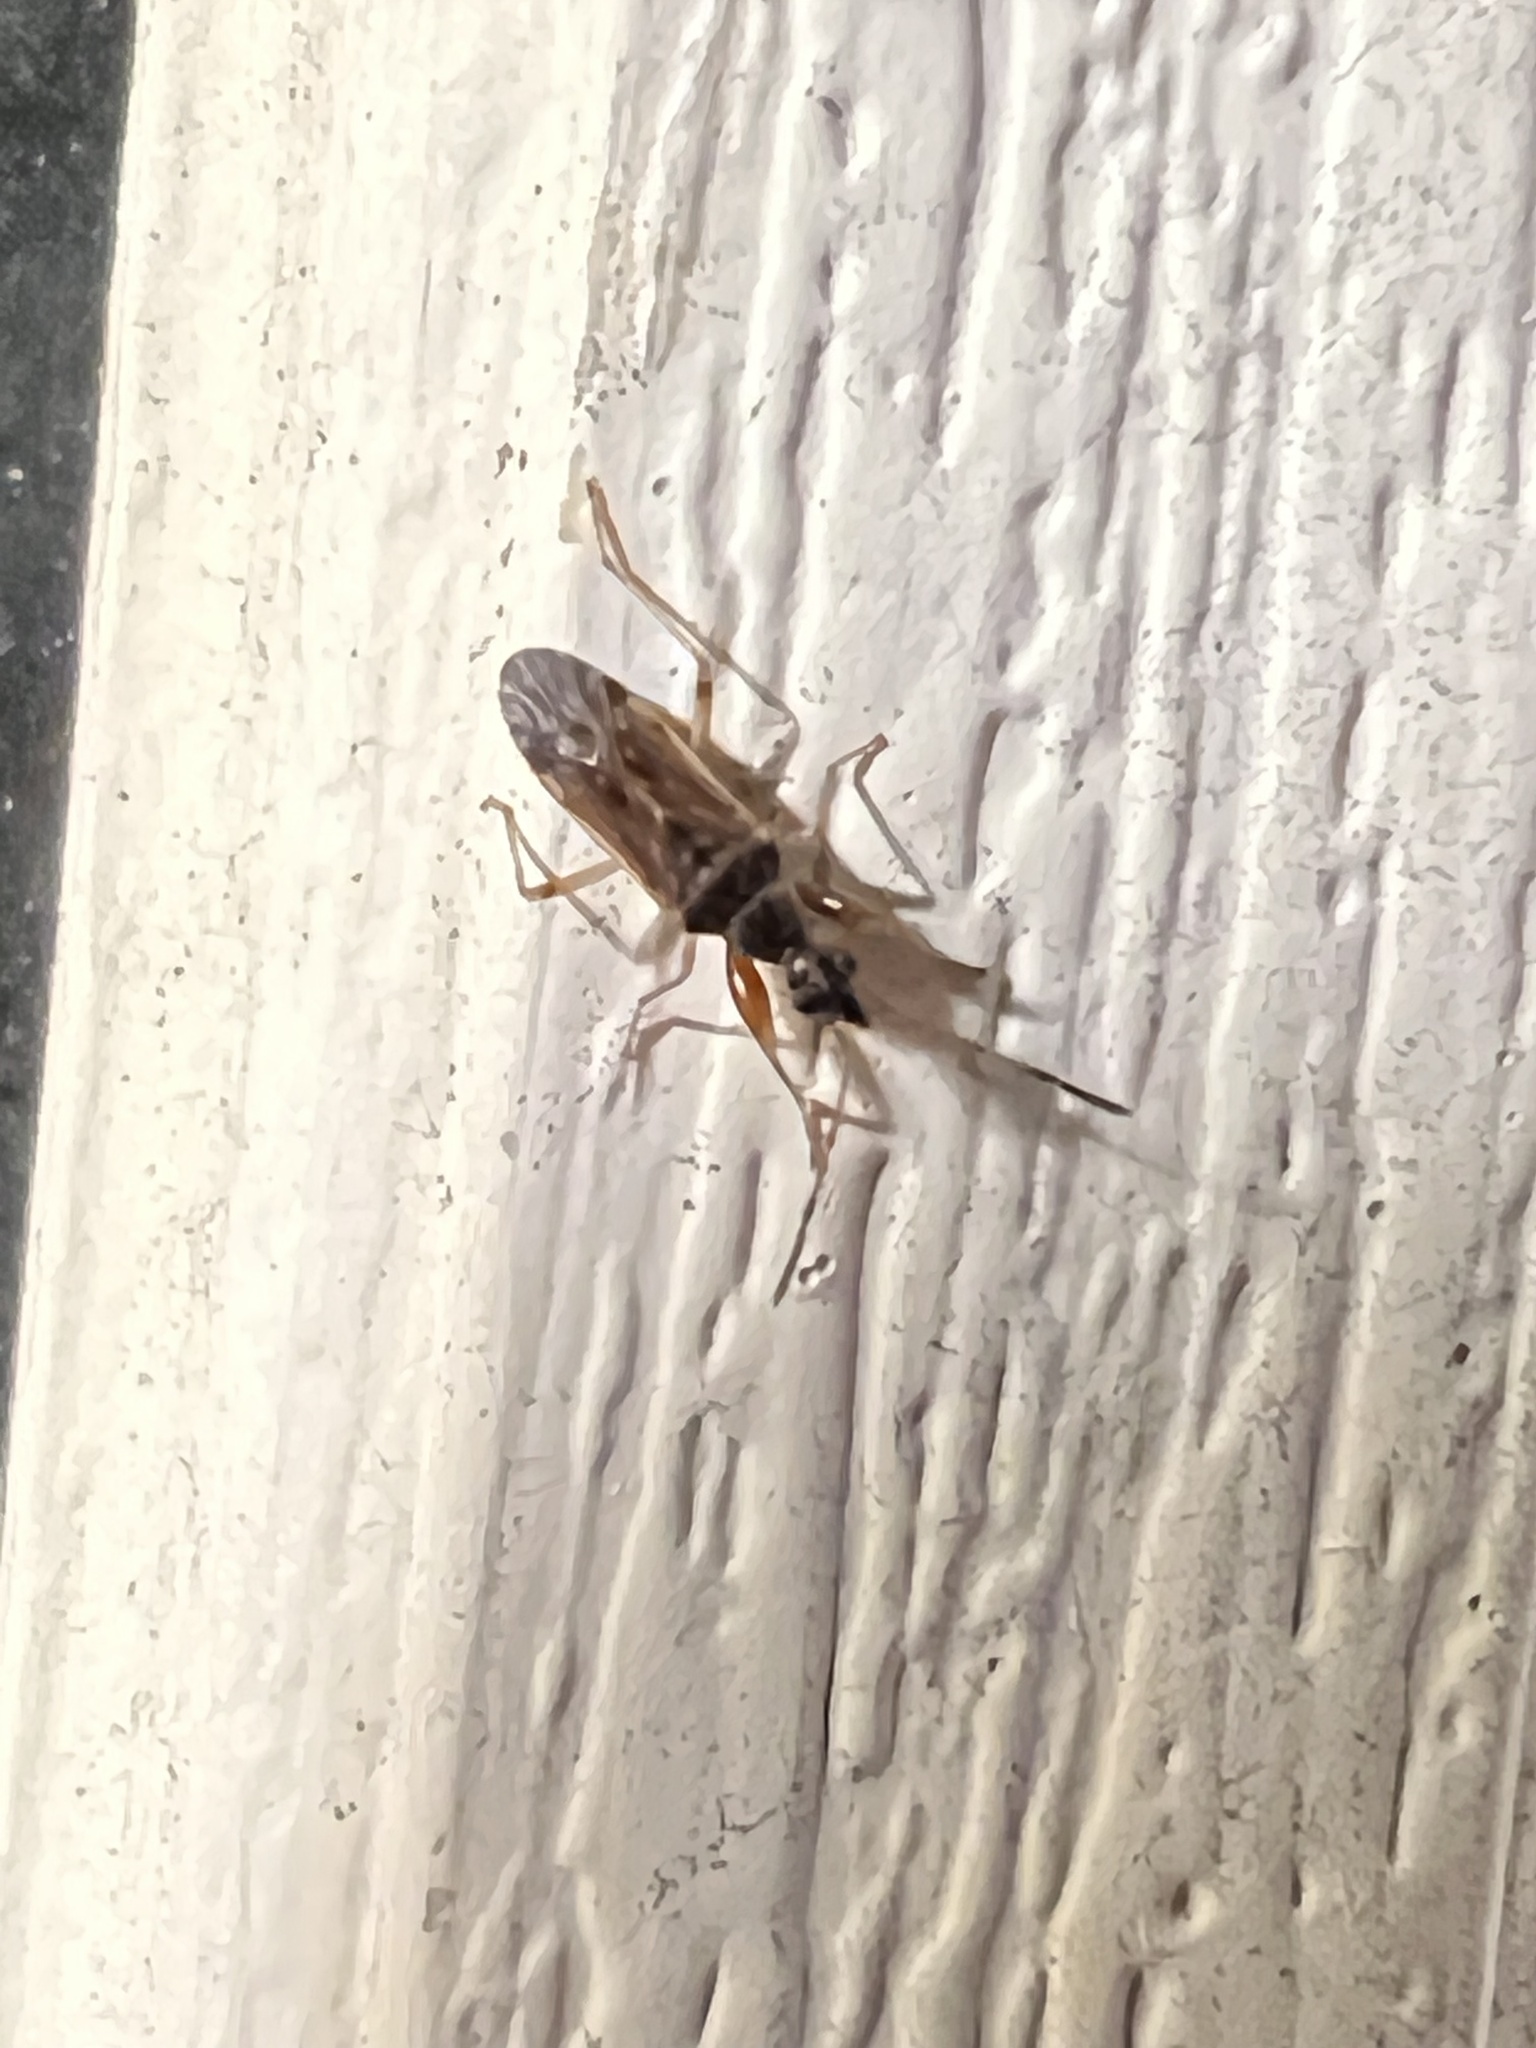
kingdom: Animalia
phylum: Arthropoda
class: Insecta
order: Hemiptera
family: Rhyparochromidae
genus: Heraeus
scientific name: Heraeus plebejus
